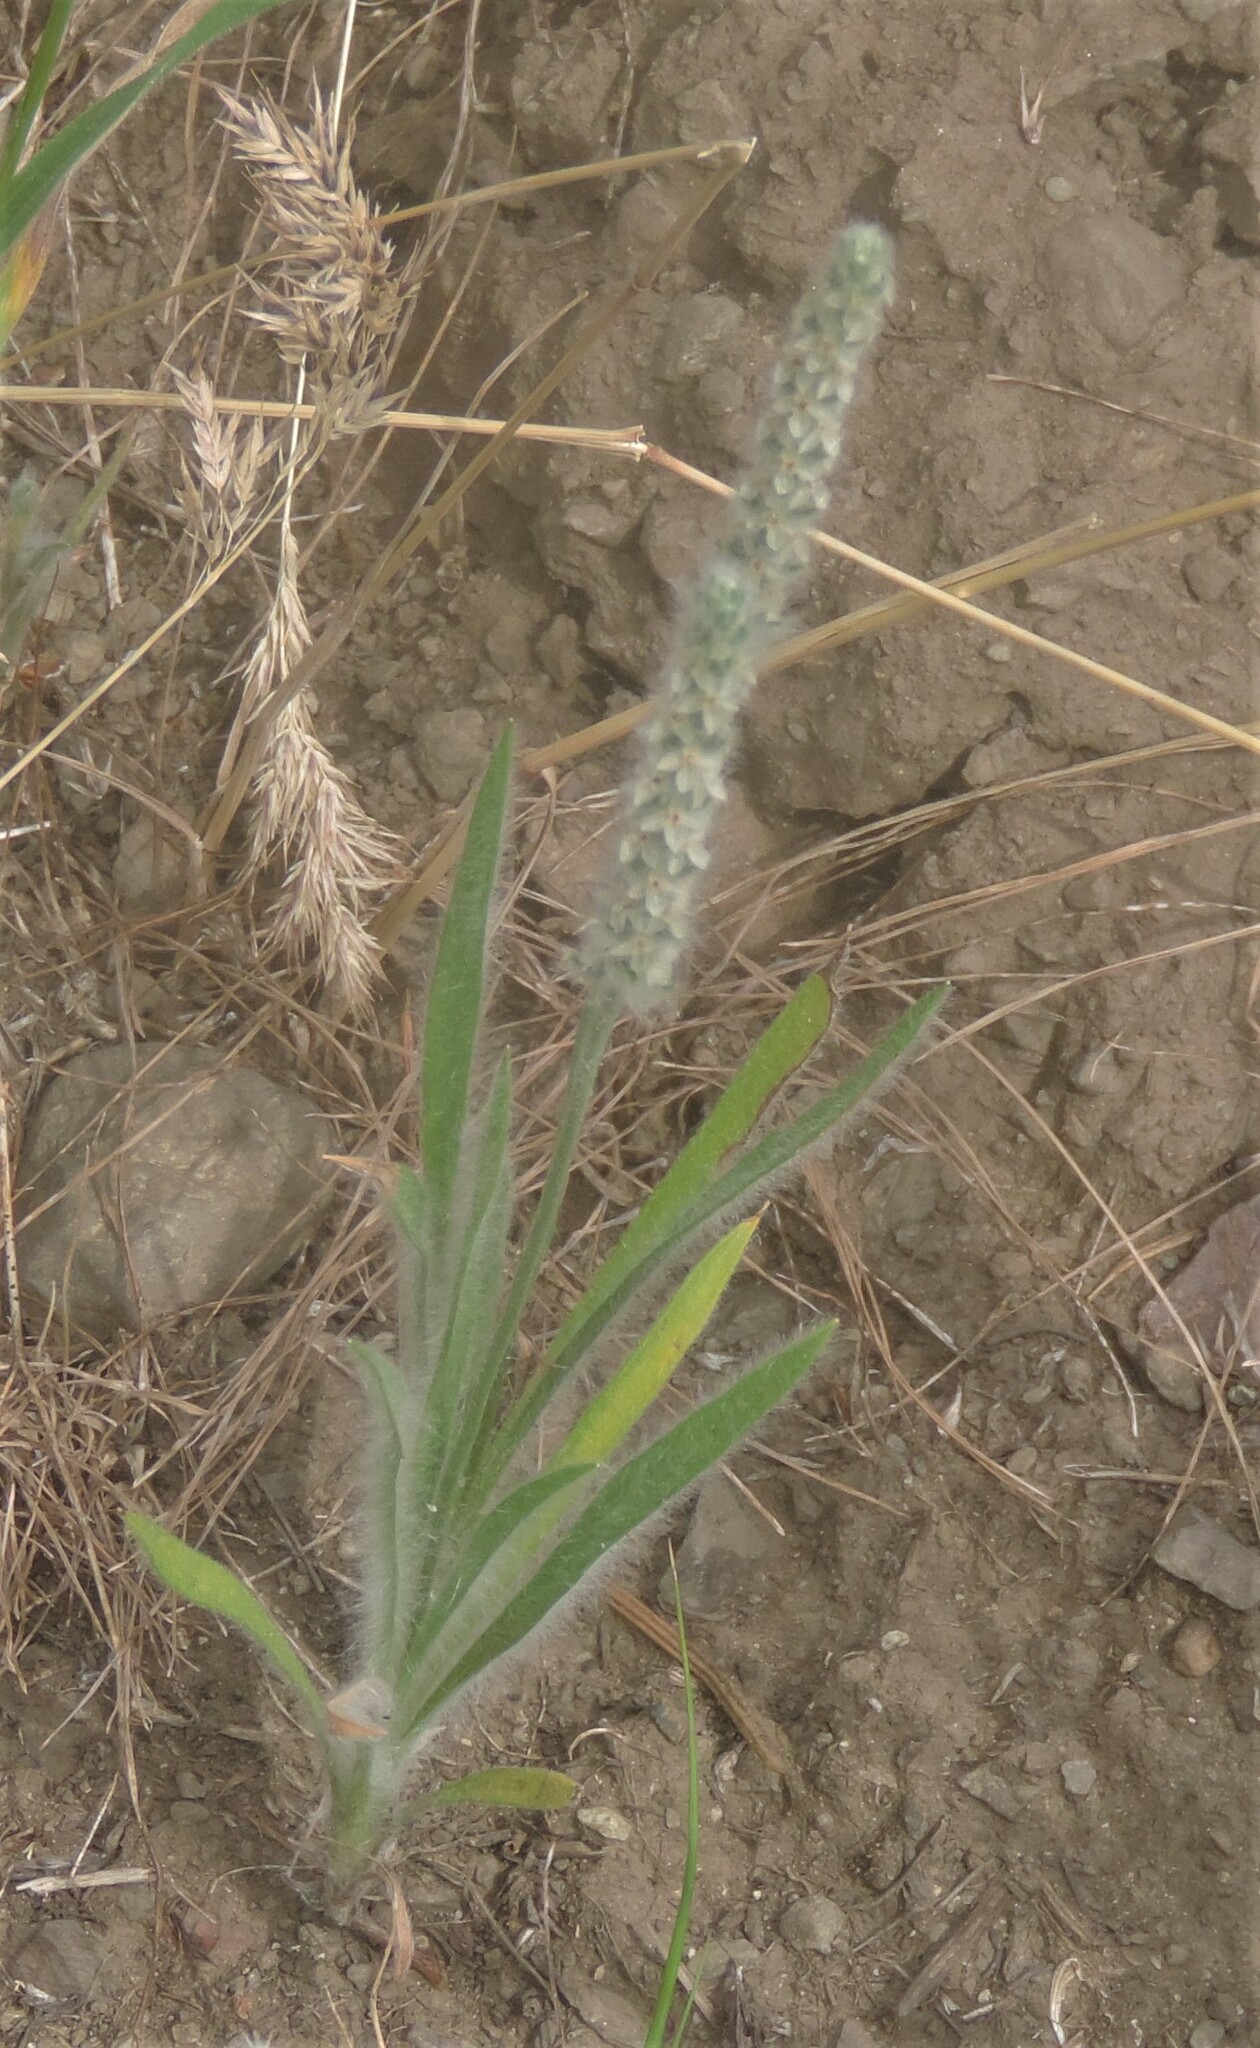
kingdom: Plantae
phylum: Tracheophyta
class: Magnoliopsida
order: Lamiales
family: Plantaginaceae
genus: Plantago
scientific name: Plantago patagonica
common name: Patagonia indian-wheat
